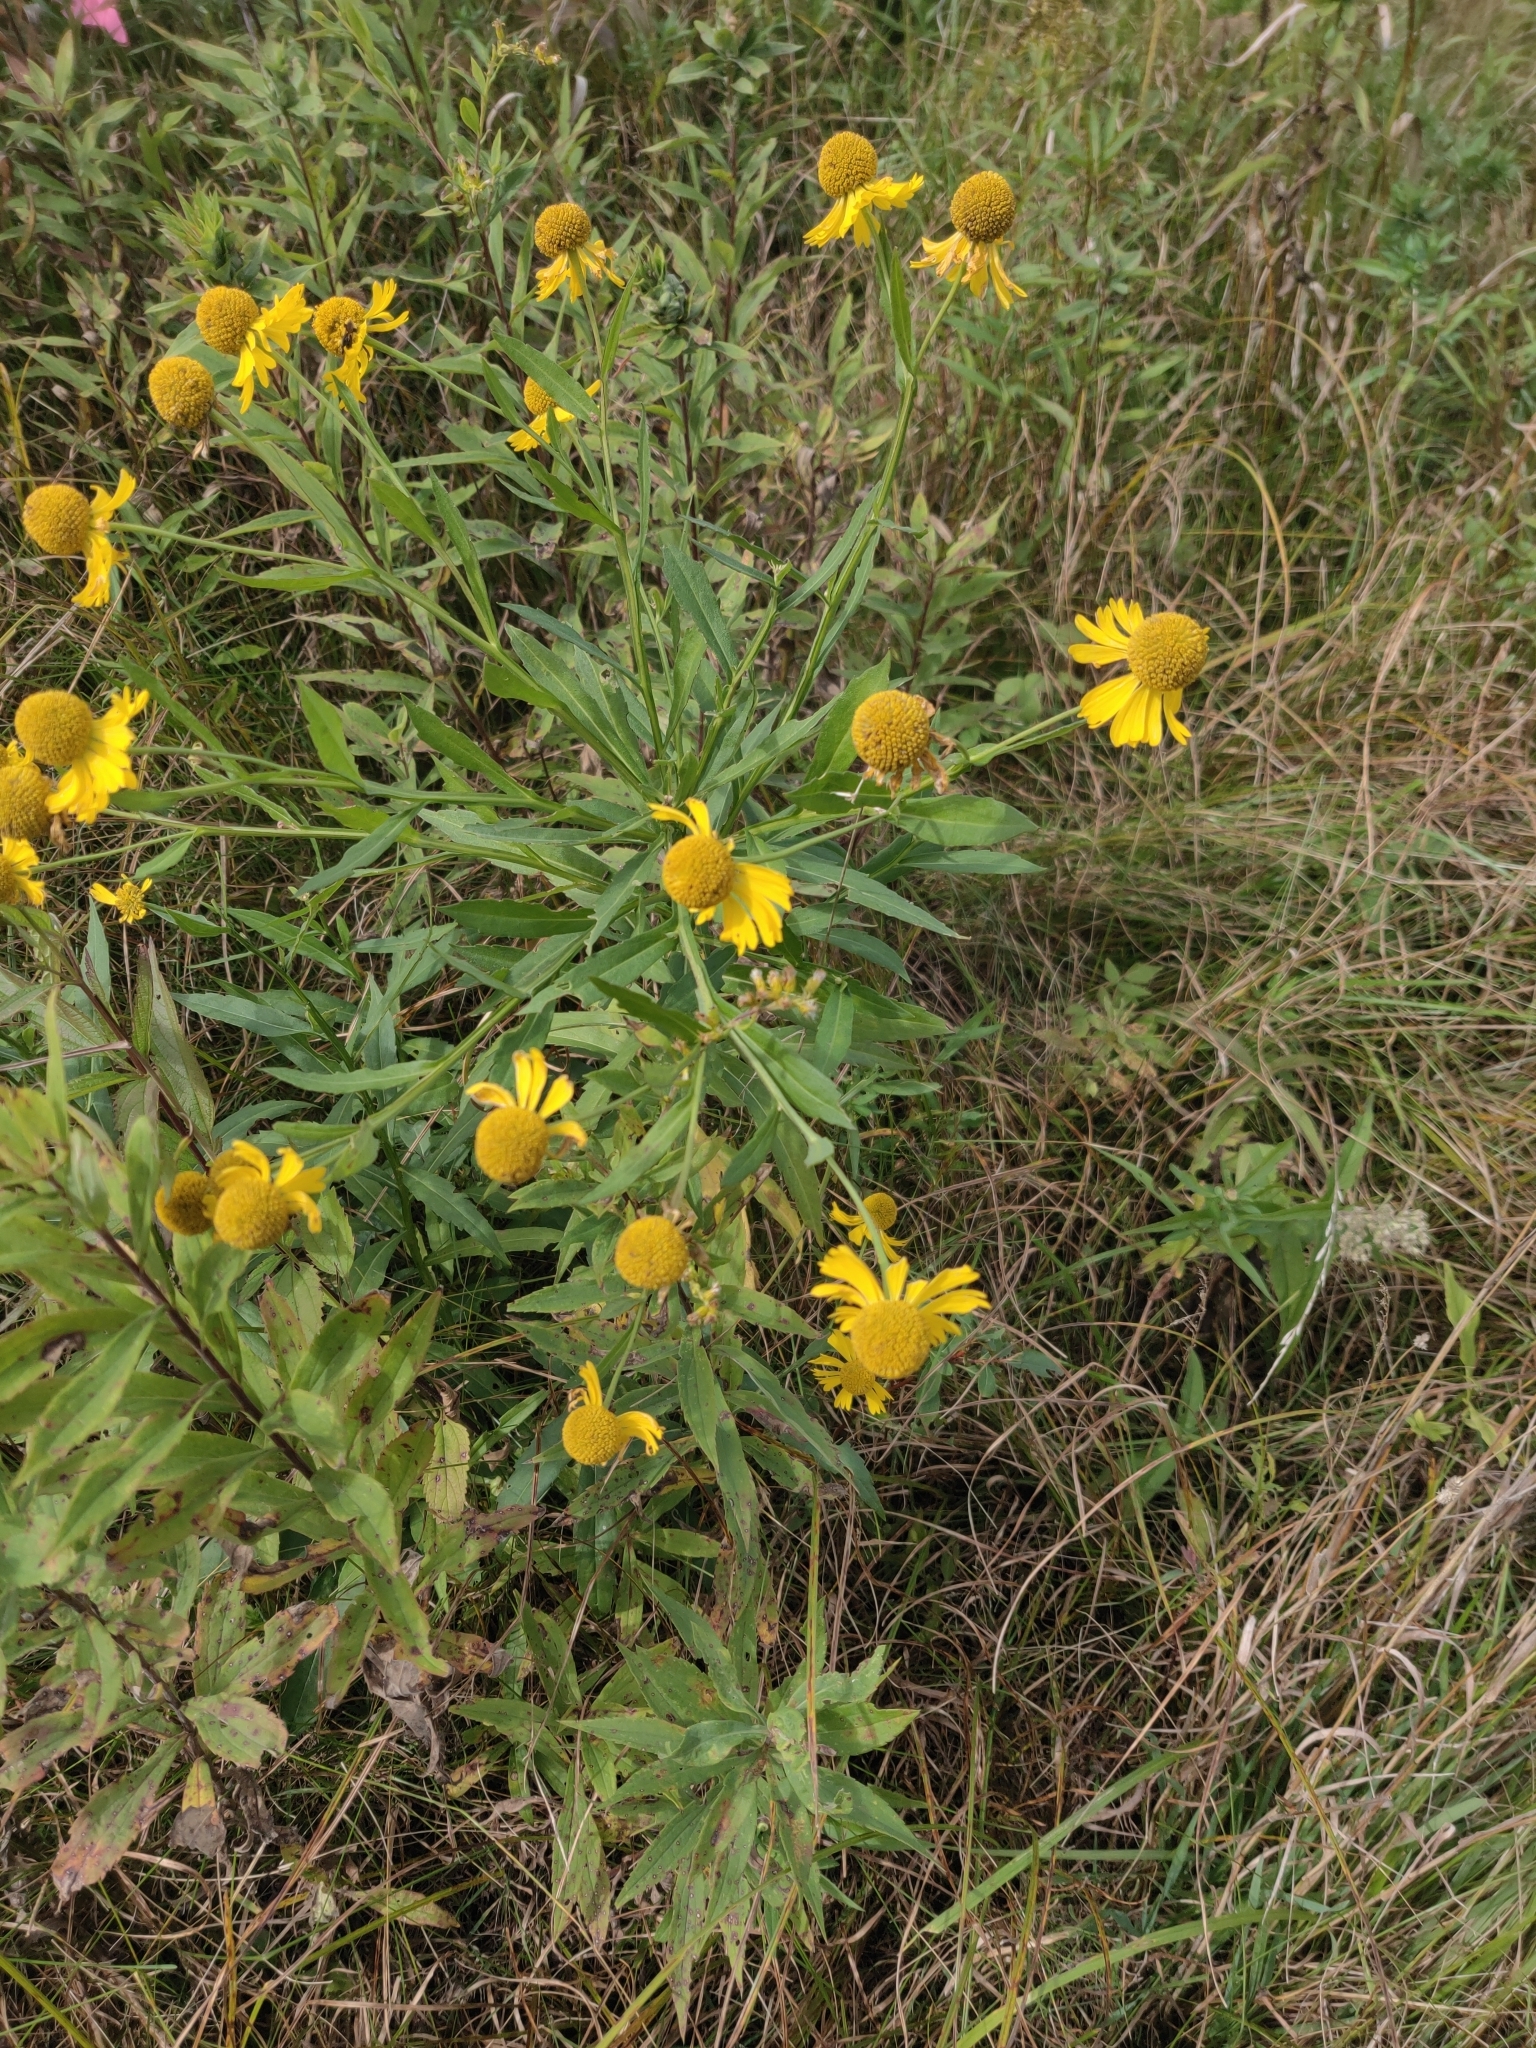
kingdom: Plantae
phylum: Tracheophyta
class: Magnoliopsida
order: Asterales
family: Asteraceae
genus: Helenium
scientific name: Helenium autumnale
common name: Sneezeweed
